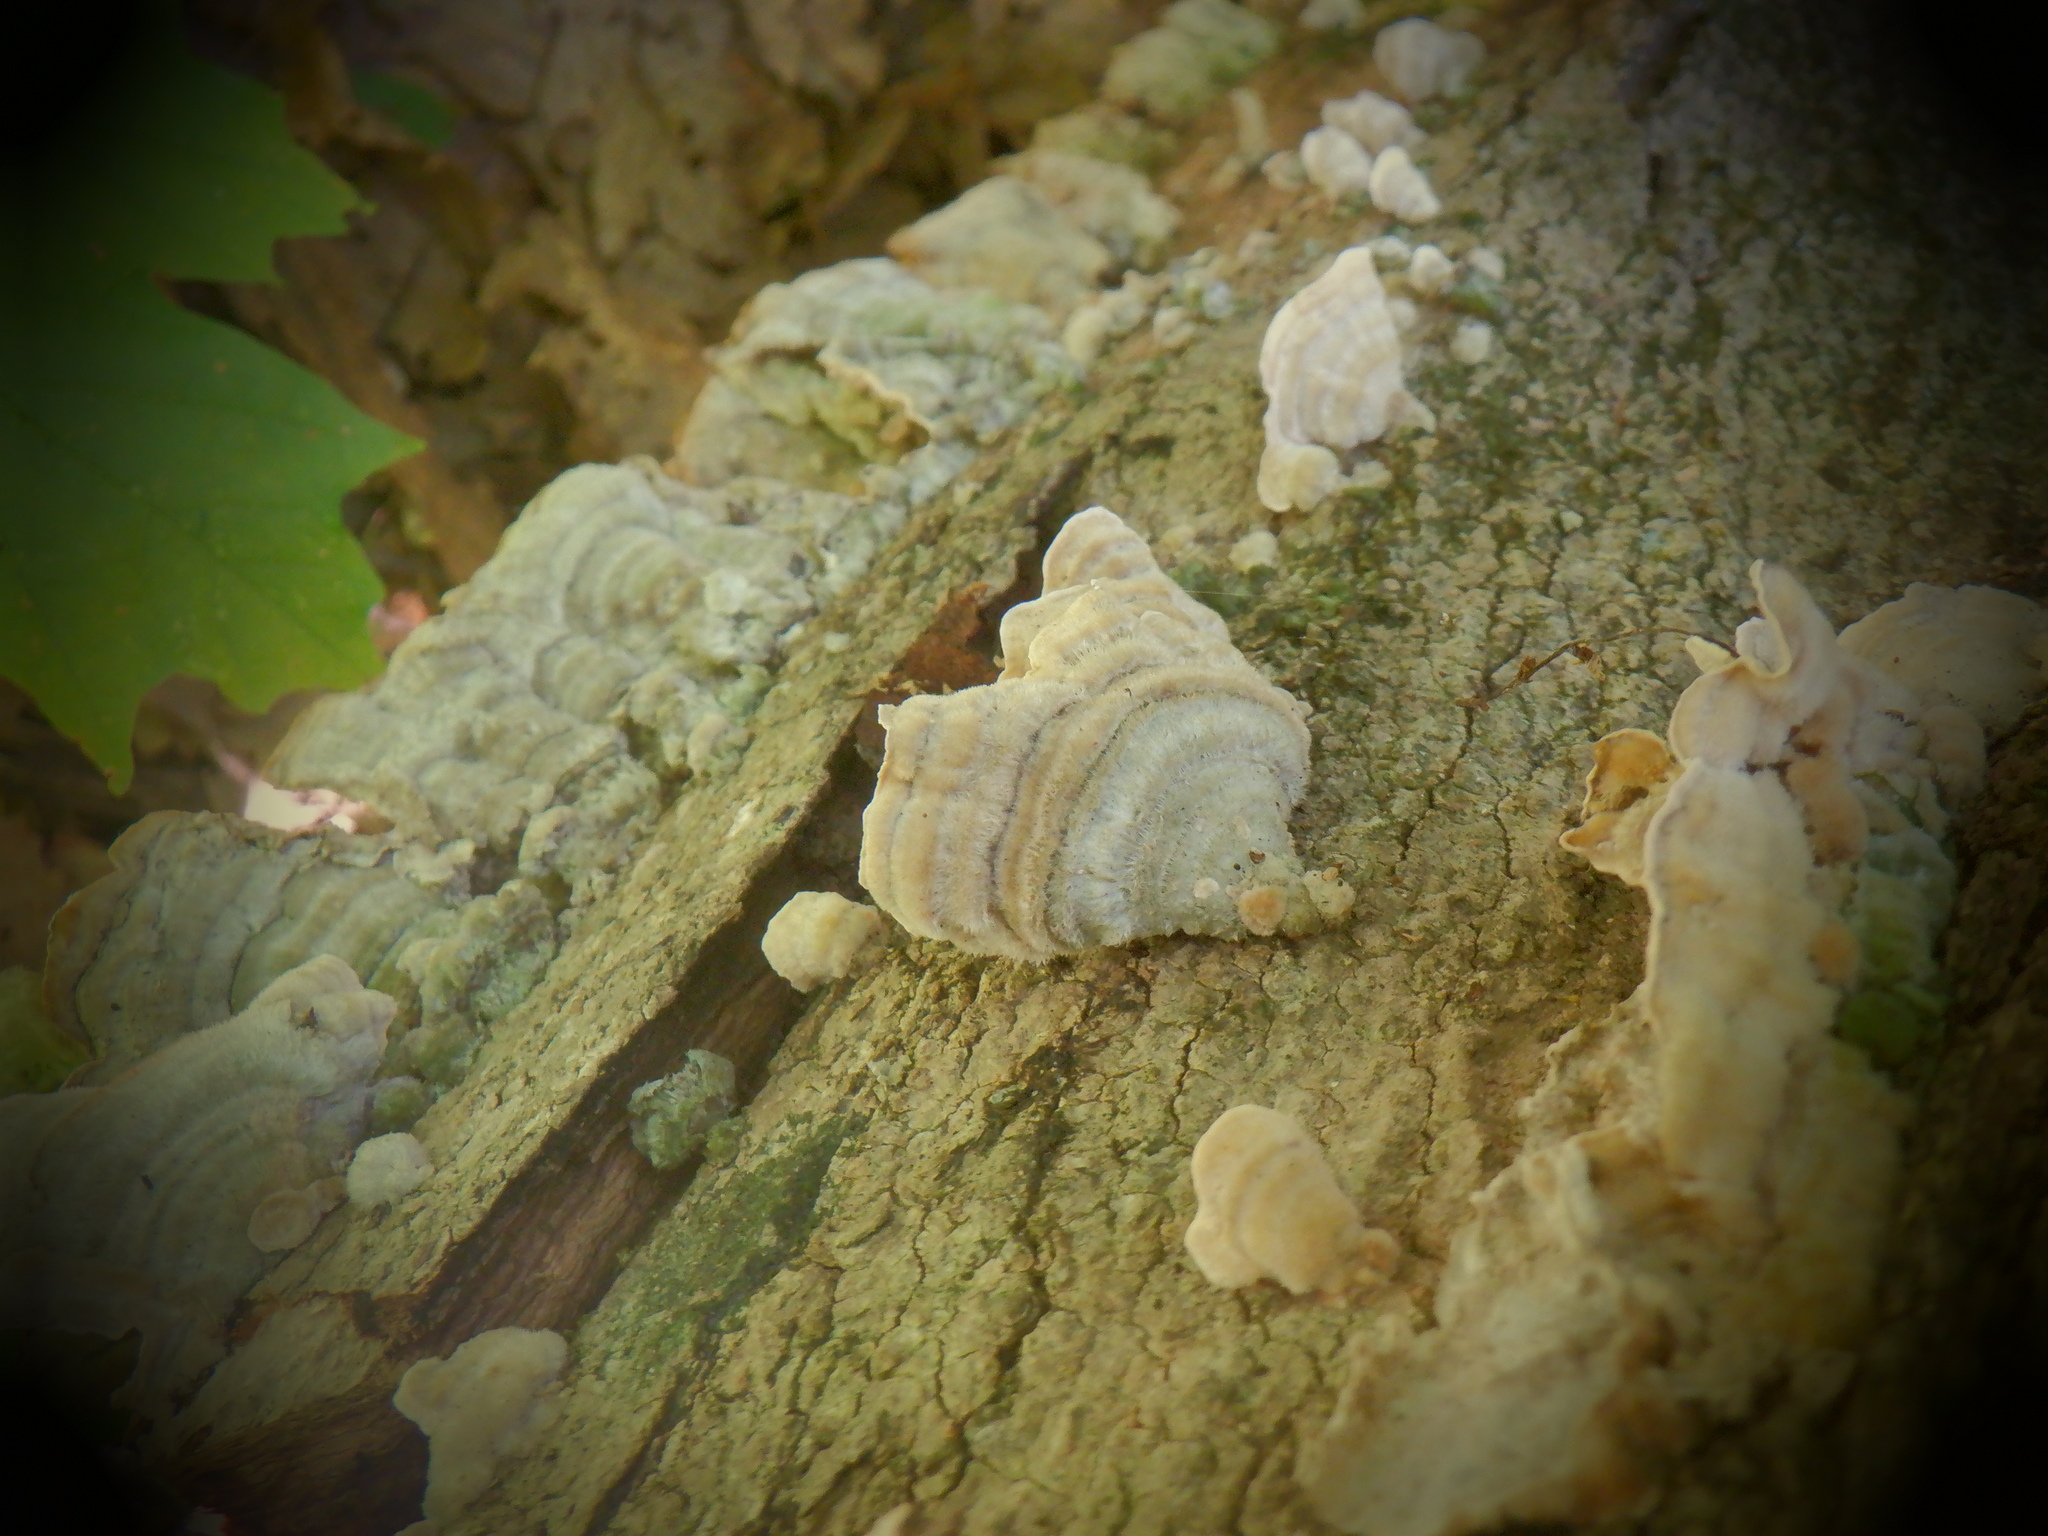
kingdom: Fungi
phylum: Basidiomycota
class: Agaricomycetes
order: Polyporales
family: Cerrenaceae
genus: Cerrena
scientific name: Cerrena unicolor
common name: Mossy maze polypore
